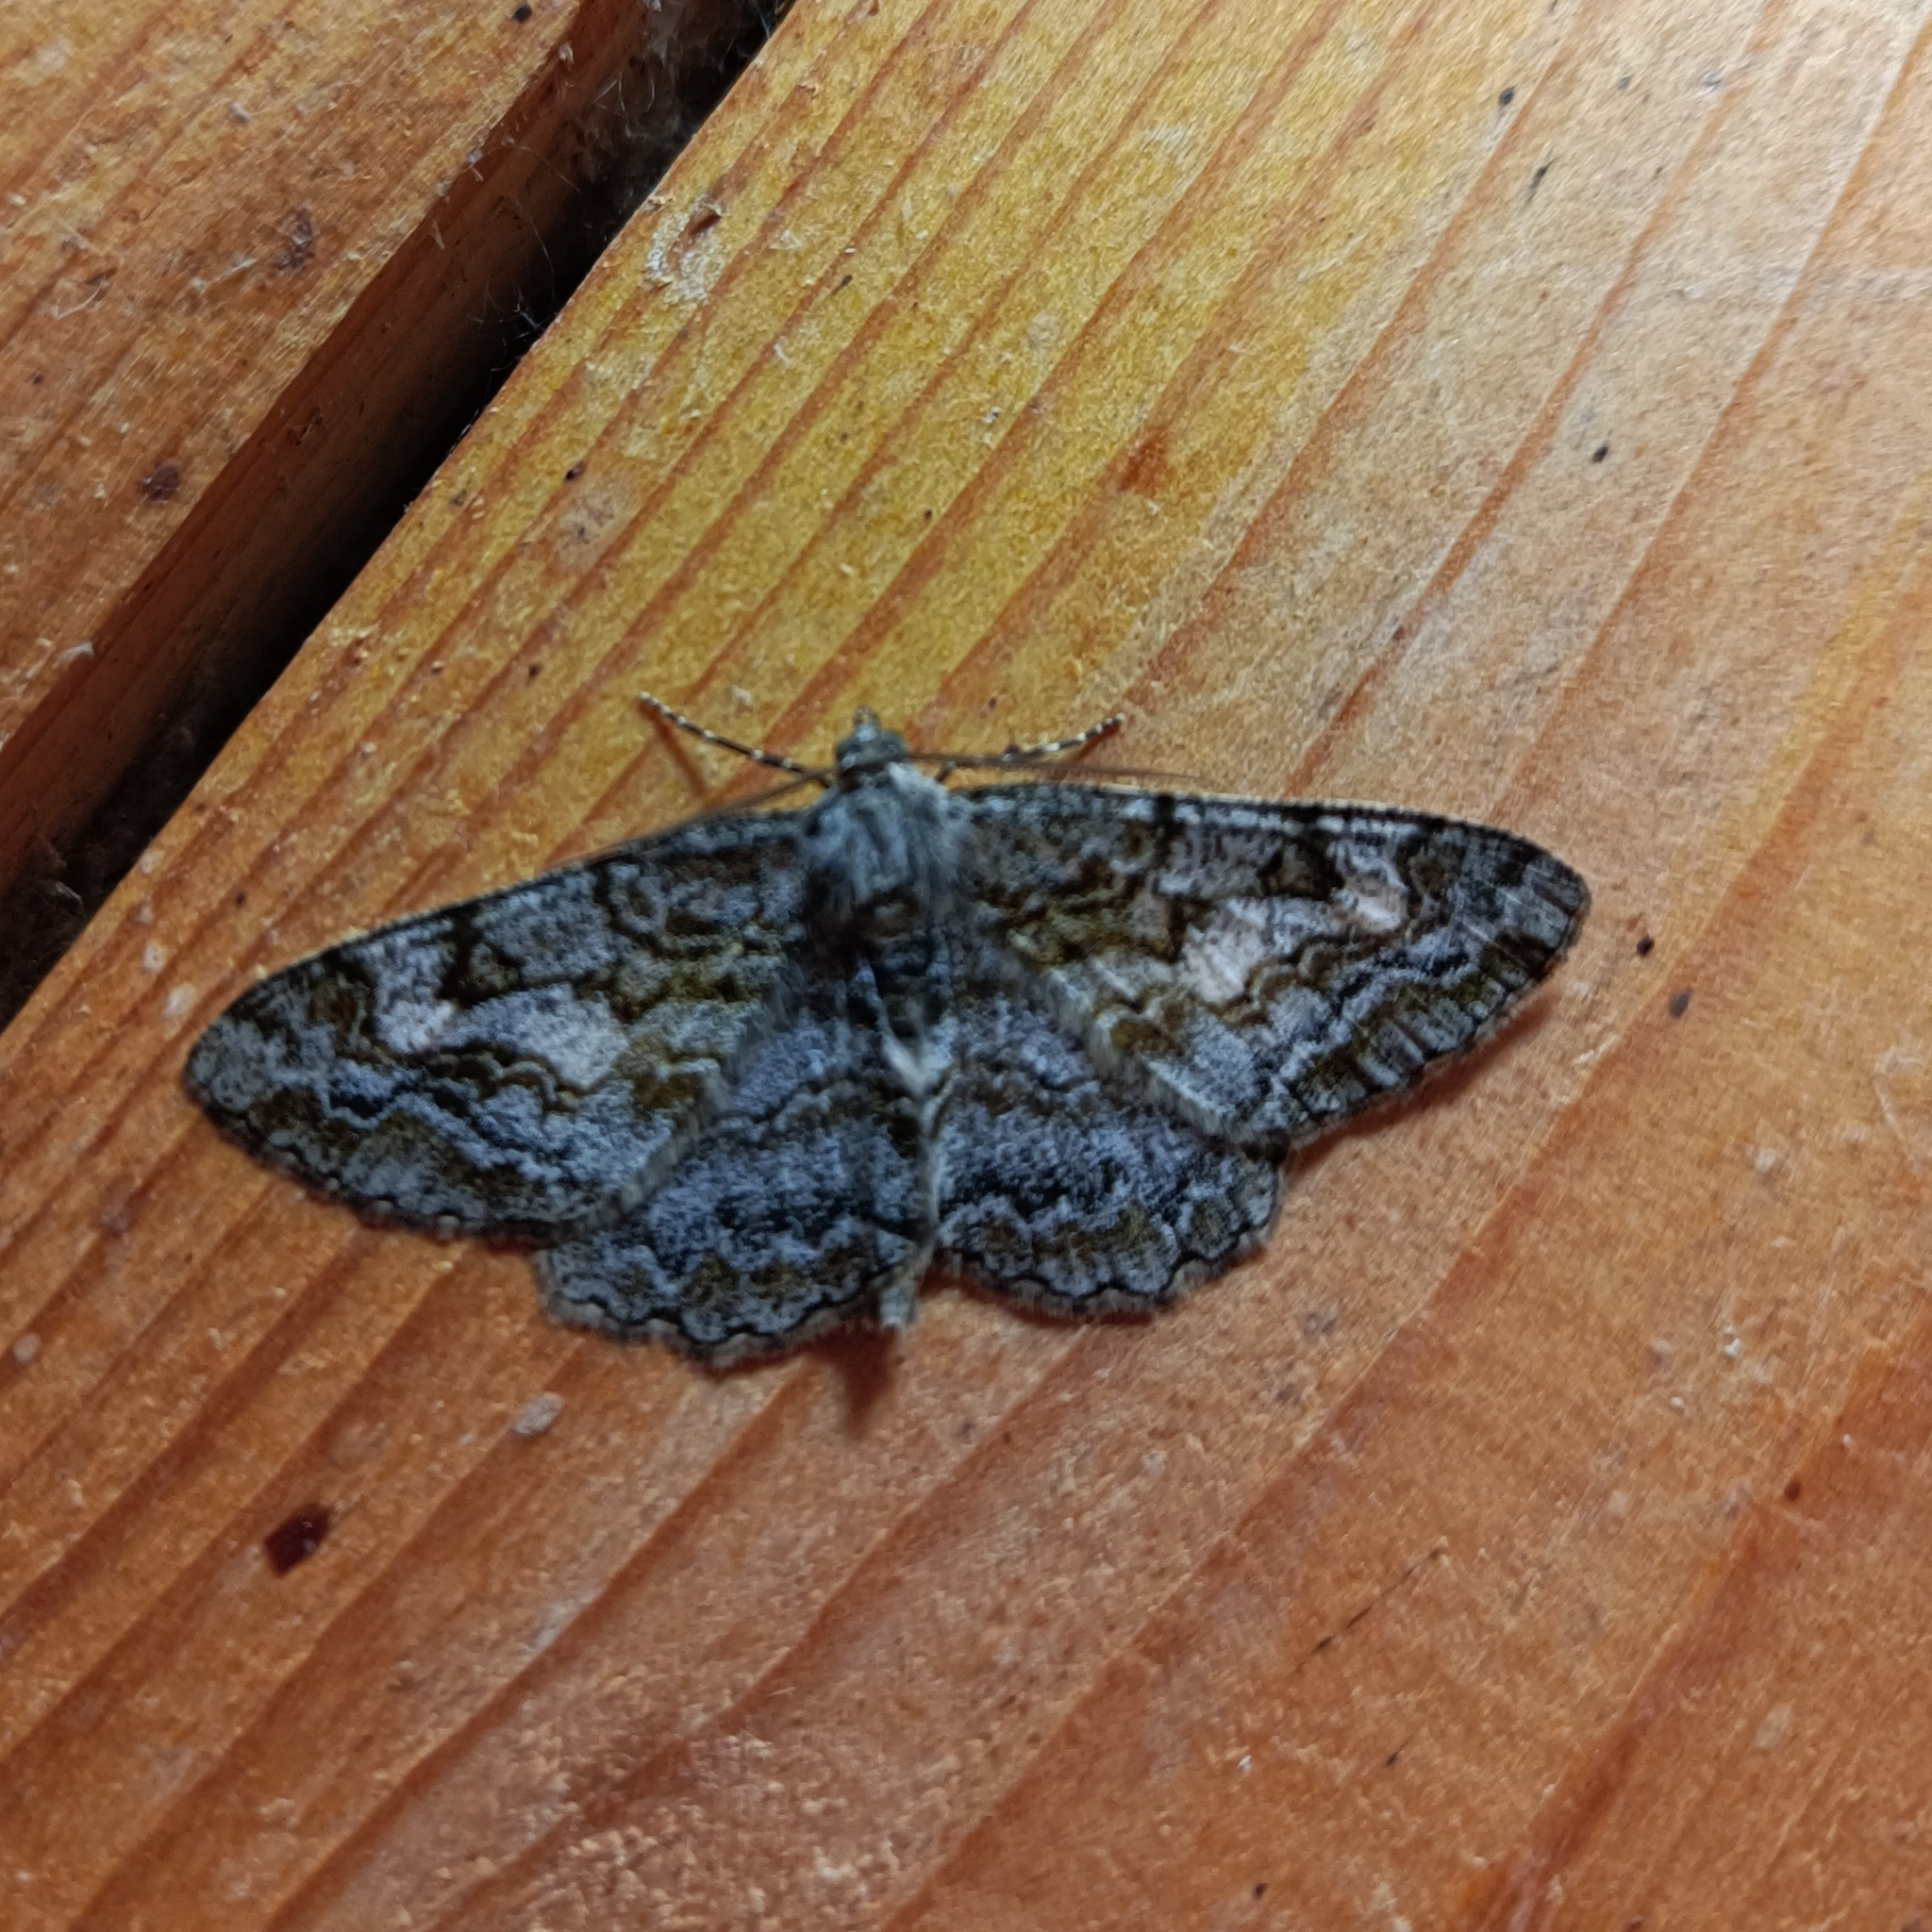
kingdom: Animalia
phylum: Arthropoda
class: Insecta
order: Lepidoptera
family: Geometridae
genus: Alcis
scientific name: Alcis repandata
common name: Mottled beauty
